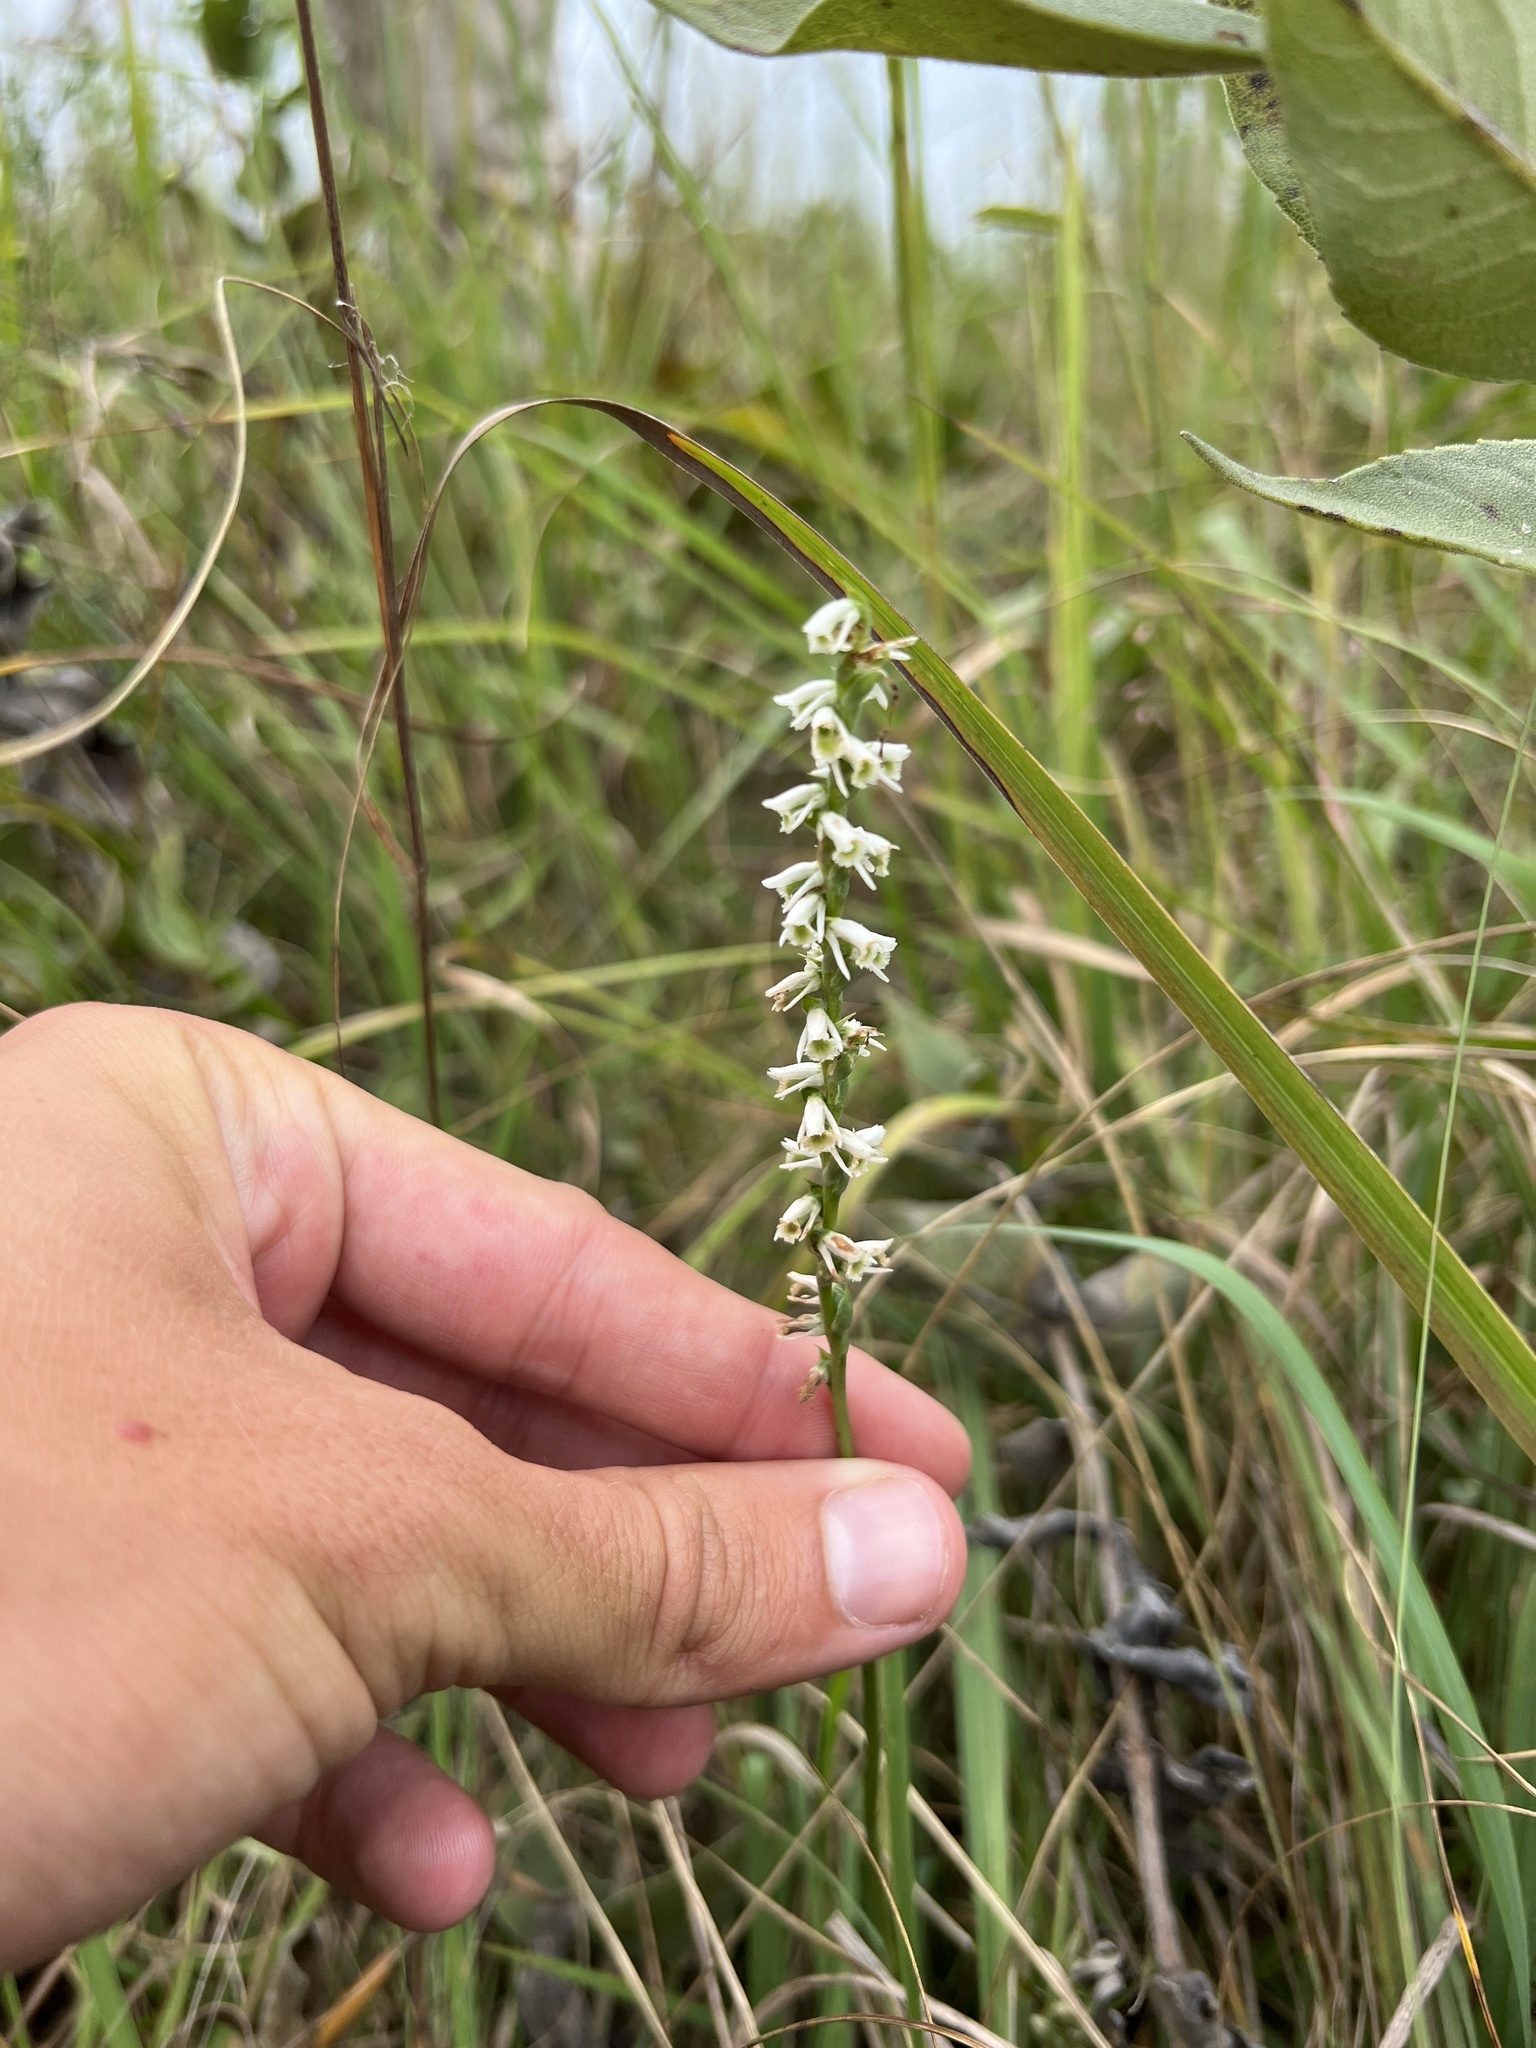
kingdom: Plantae
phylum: Tracheophyta
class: Liliopsida
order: Asparagales
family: Orchidaceae
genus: Spiranthes
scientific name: Spiranthes lacera
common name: Northern slender ladies'-tresses
